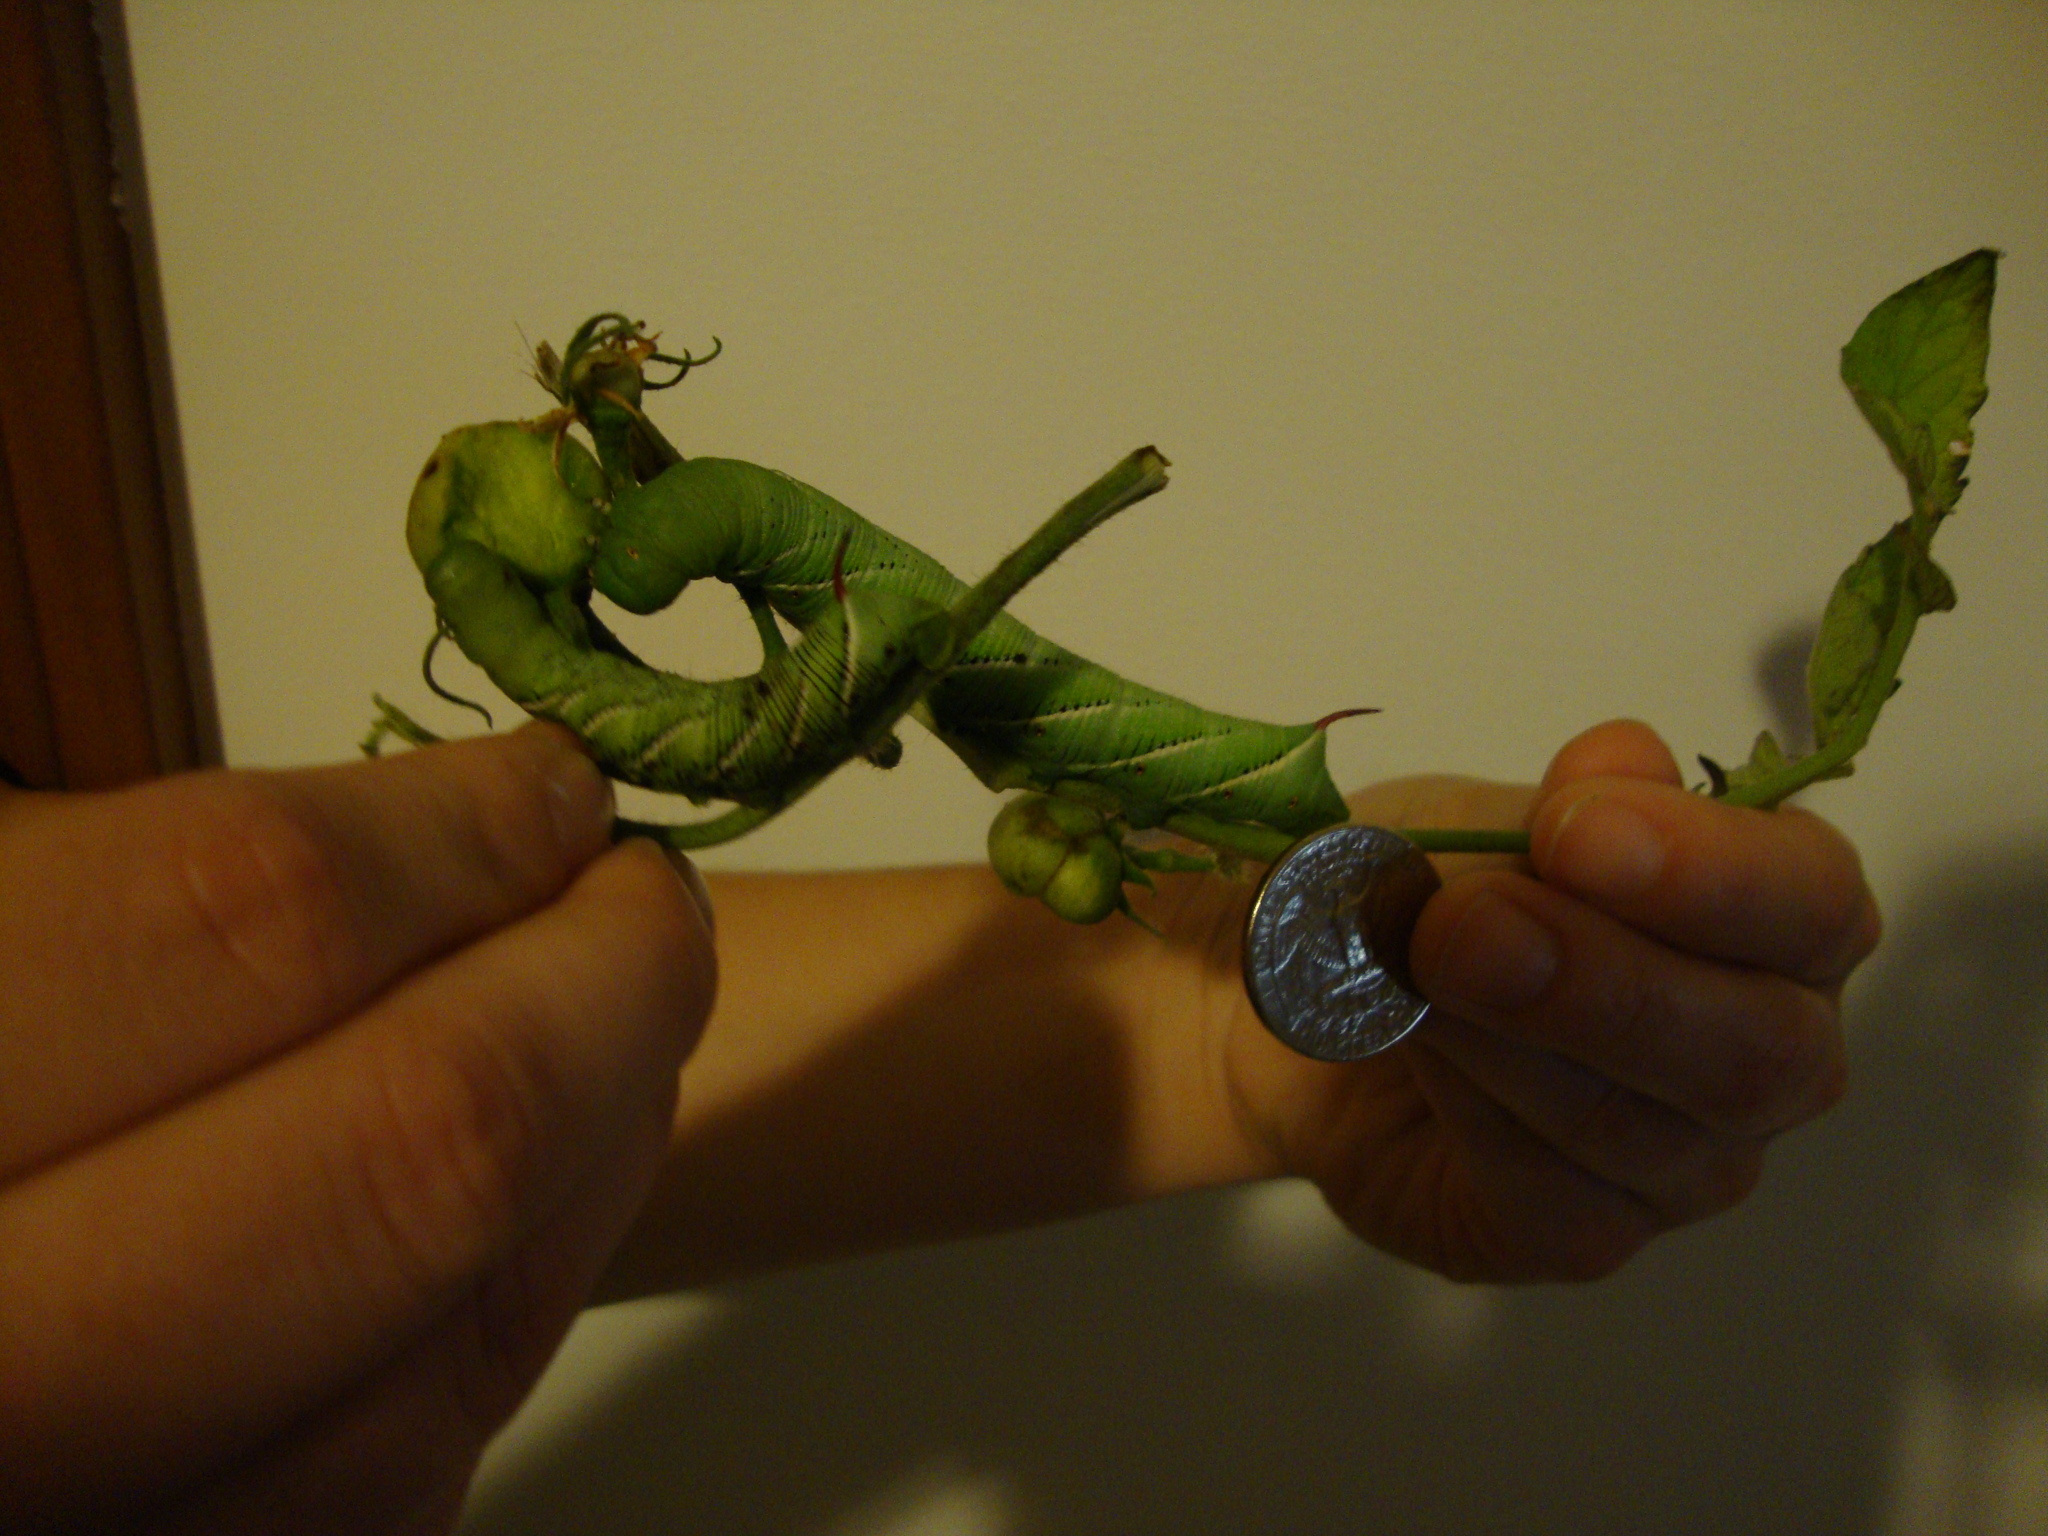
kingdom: Animalia
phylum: Arthropoda
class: Insecta
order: Lepidoptera
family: Sphingidae
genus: Manduca
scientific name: Manduca sexta
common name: Carolina sphinx
